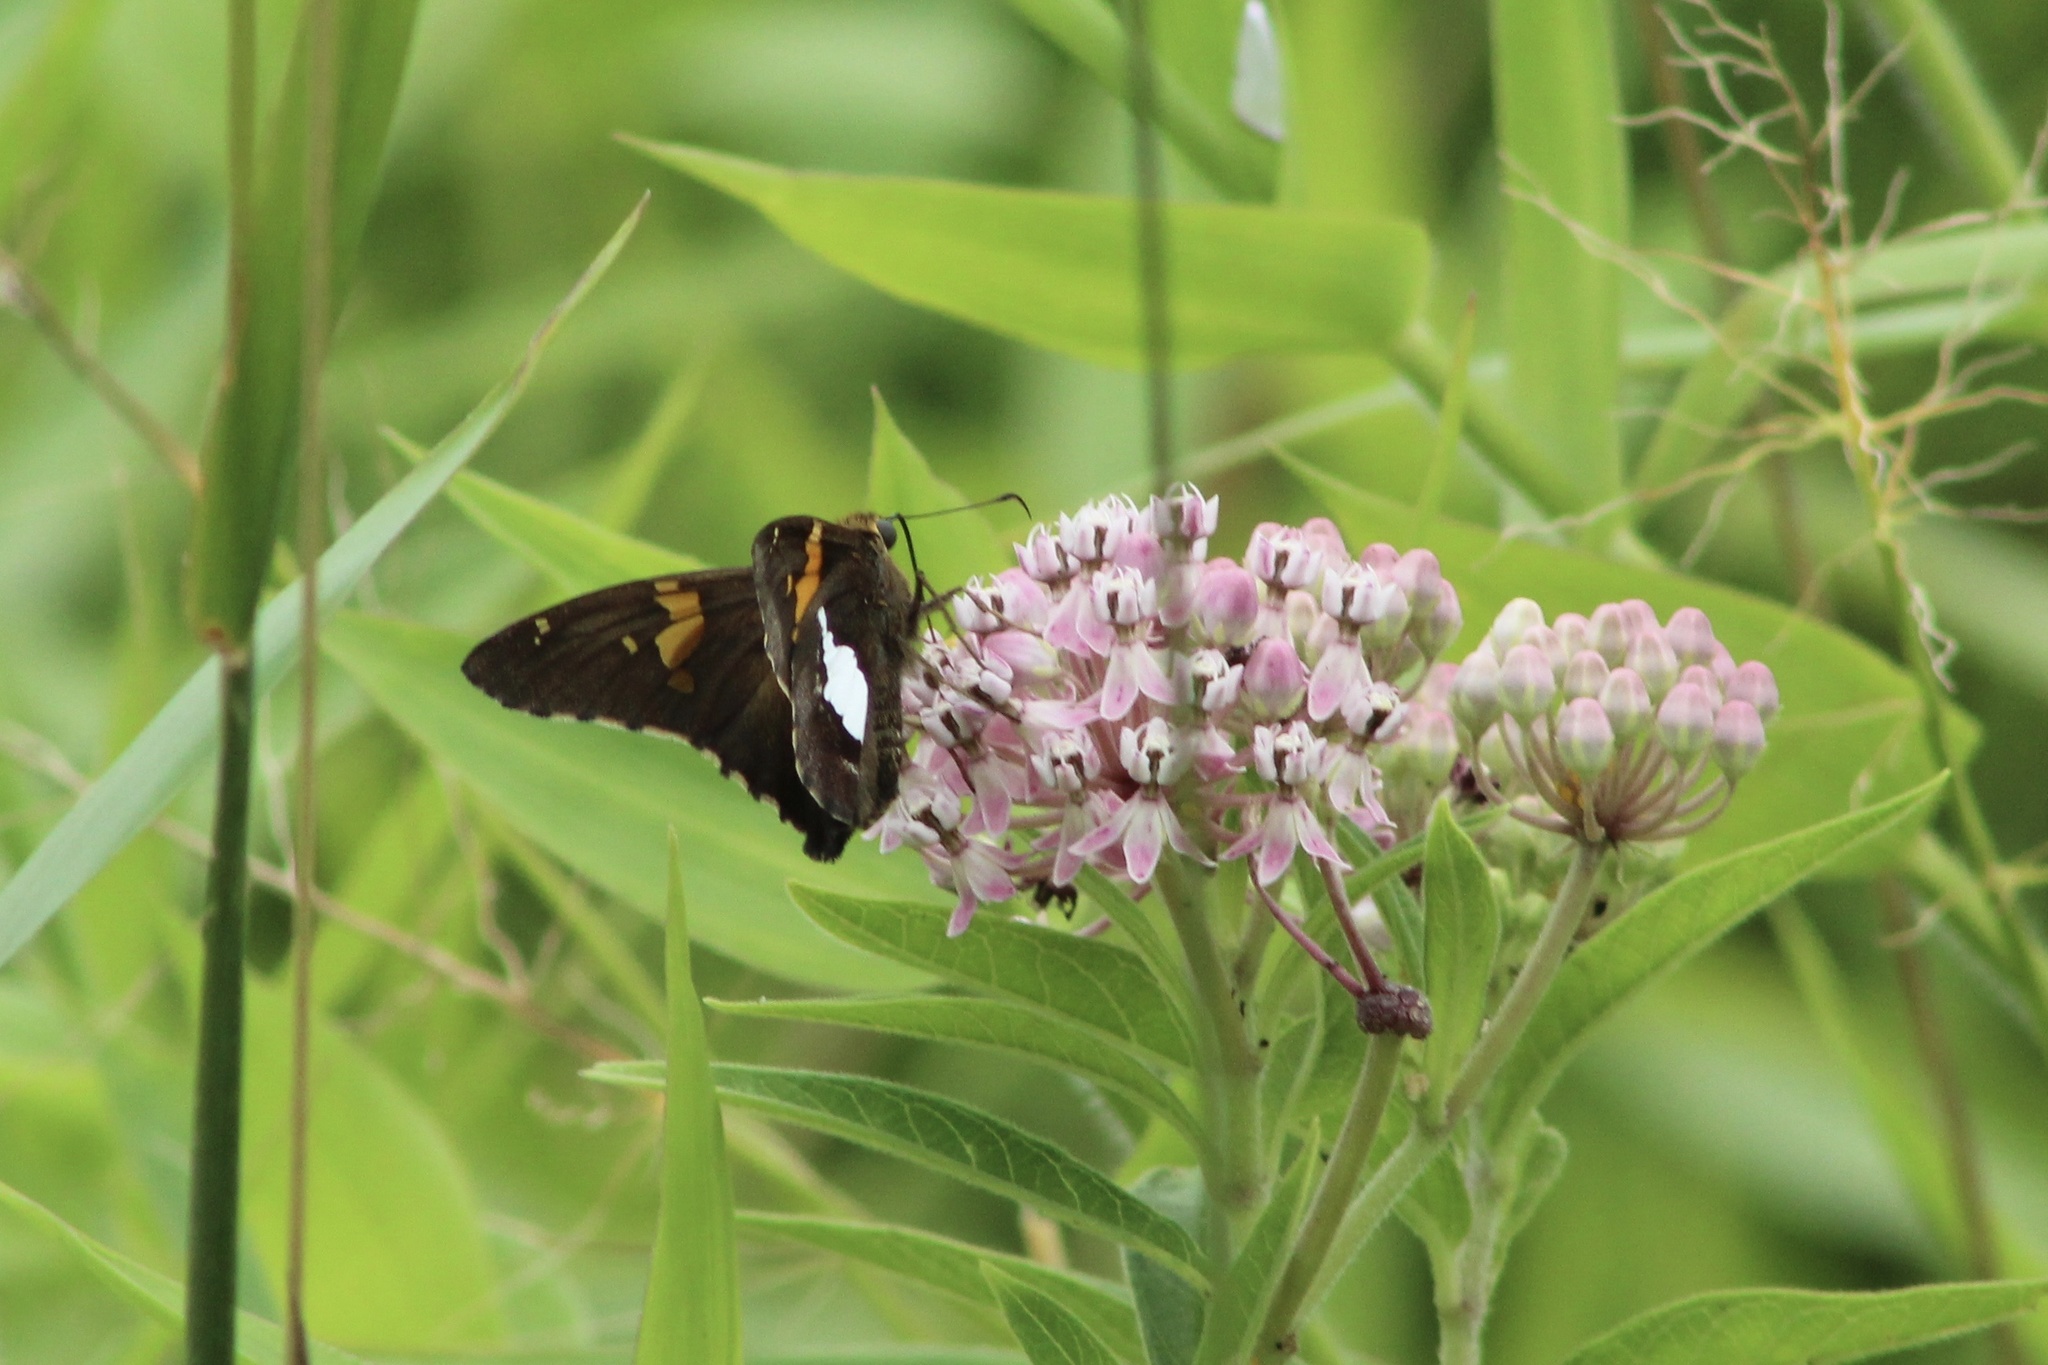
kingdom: Animalia
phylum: Arthropoda
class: Insecta
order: Lepidoptera
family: Hesperiidae
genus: Epargyreus
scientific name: Epargyreus clarus
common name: Silver-spotted skipper
